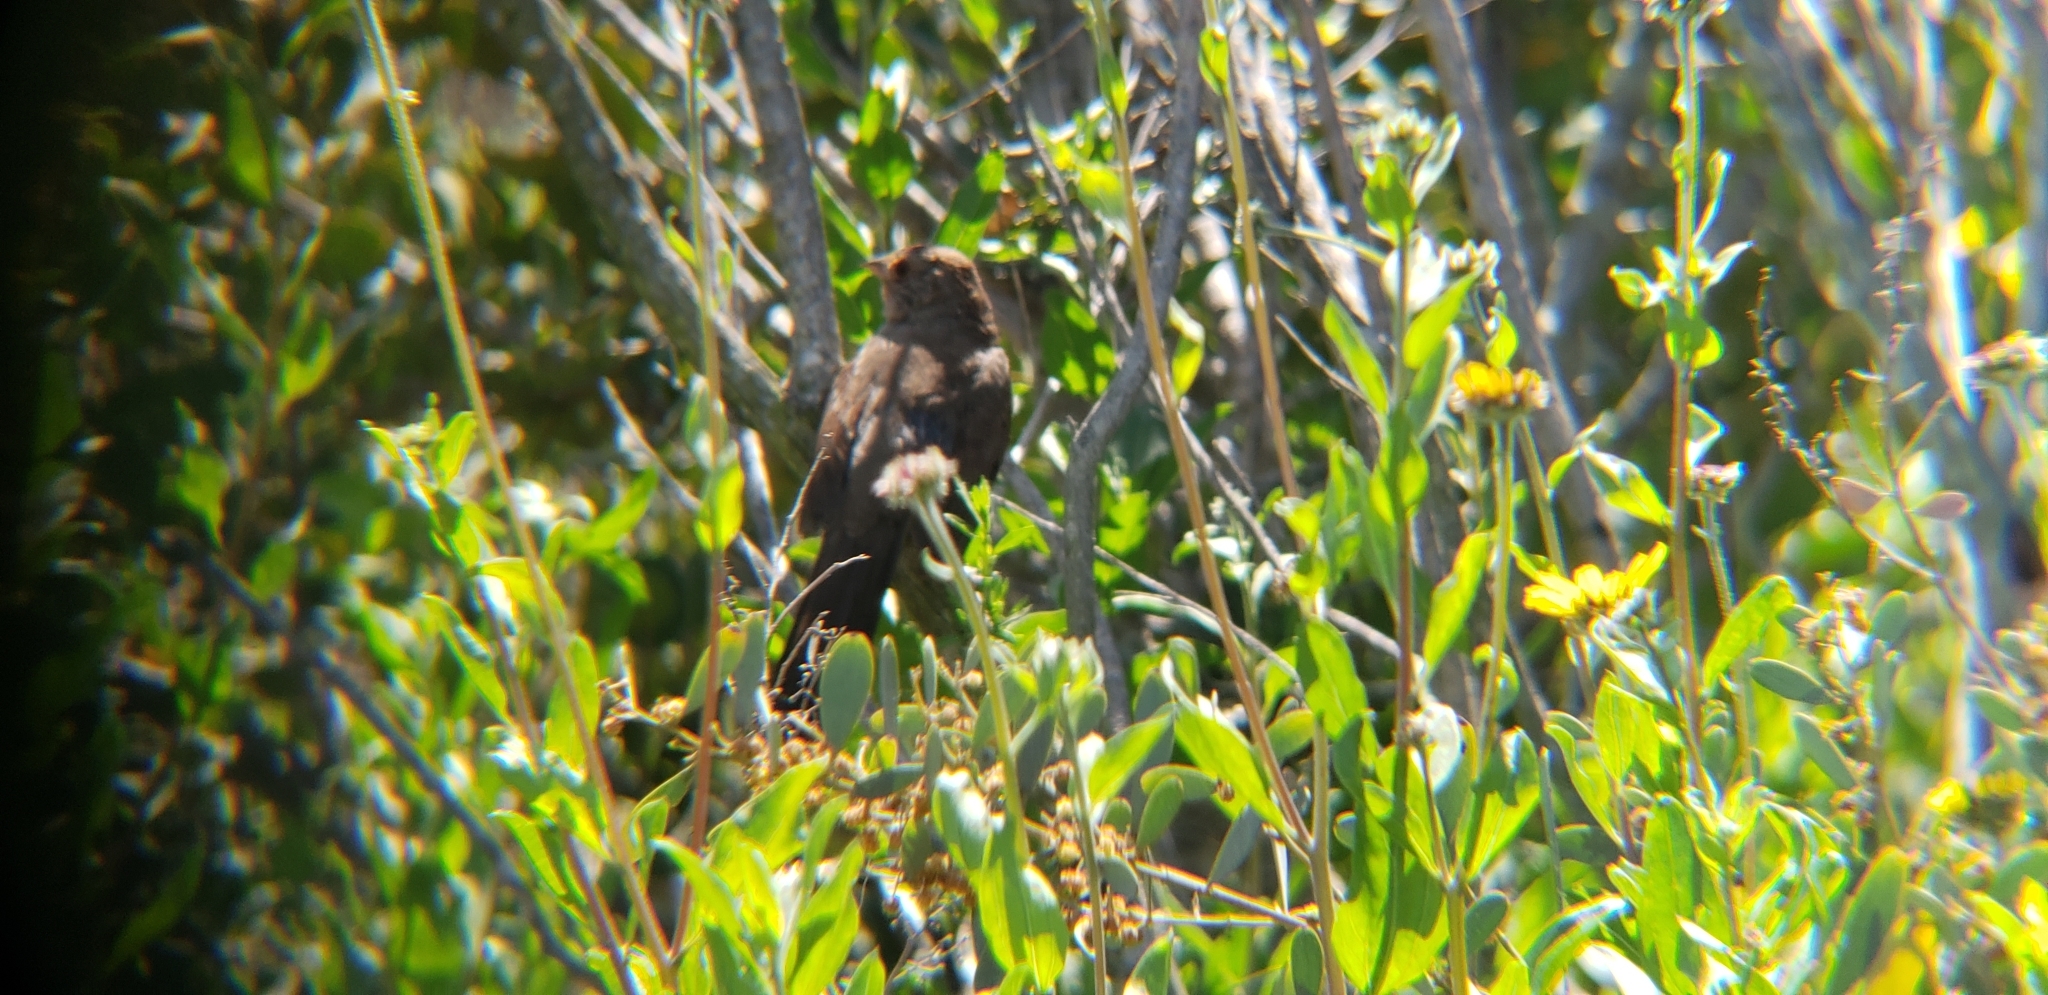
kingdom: Animalia
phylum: Chordata
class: Aves
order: Passeriformes
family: Passerellidae
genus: Melozone
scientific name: Melozone crissalis
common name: California towhee
